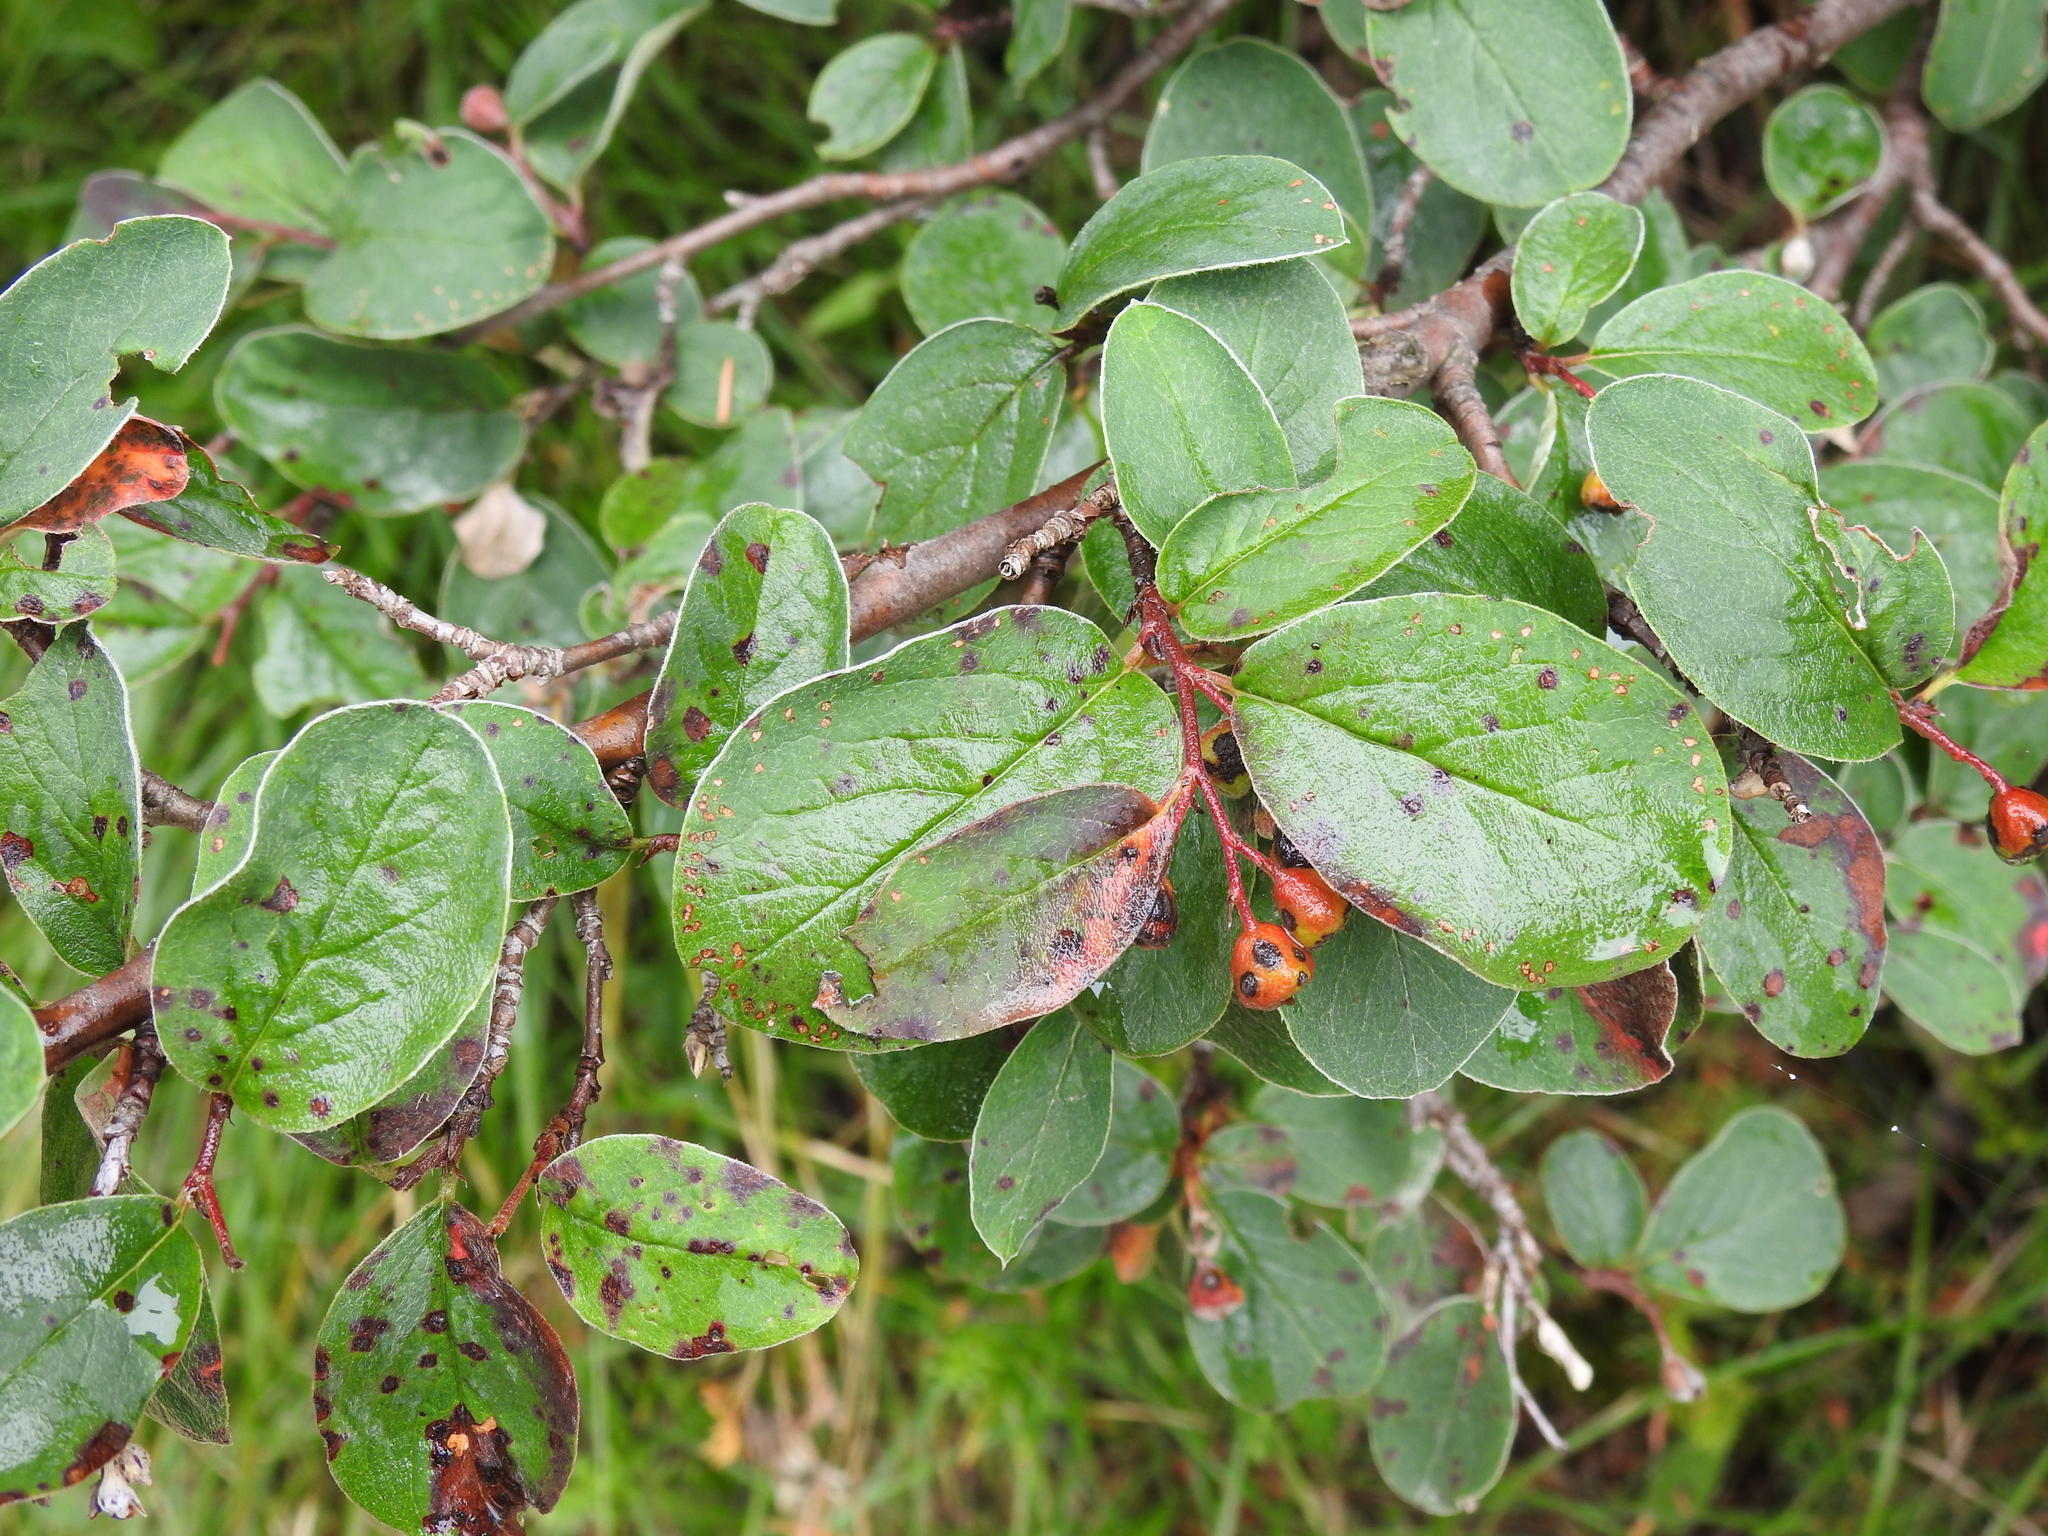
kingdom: Plantae
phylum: Tracheophyta
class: Magnoliopsida
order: Rosales
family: Rosaceae
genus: Cotoneaster
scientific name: Cotoneaster tomentosus
